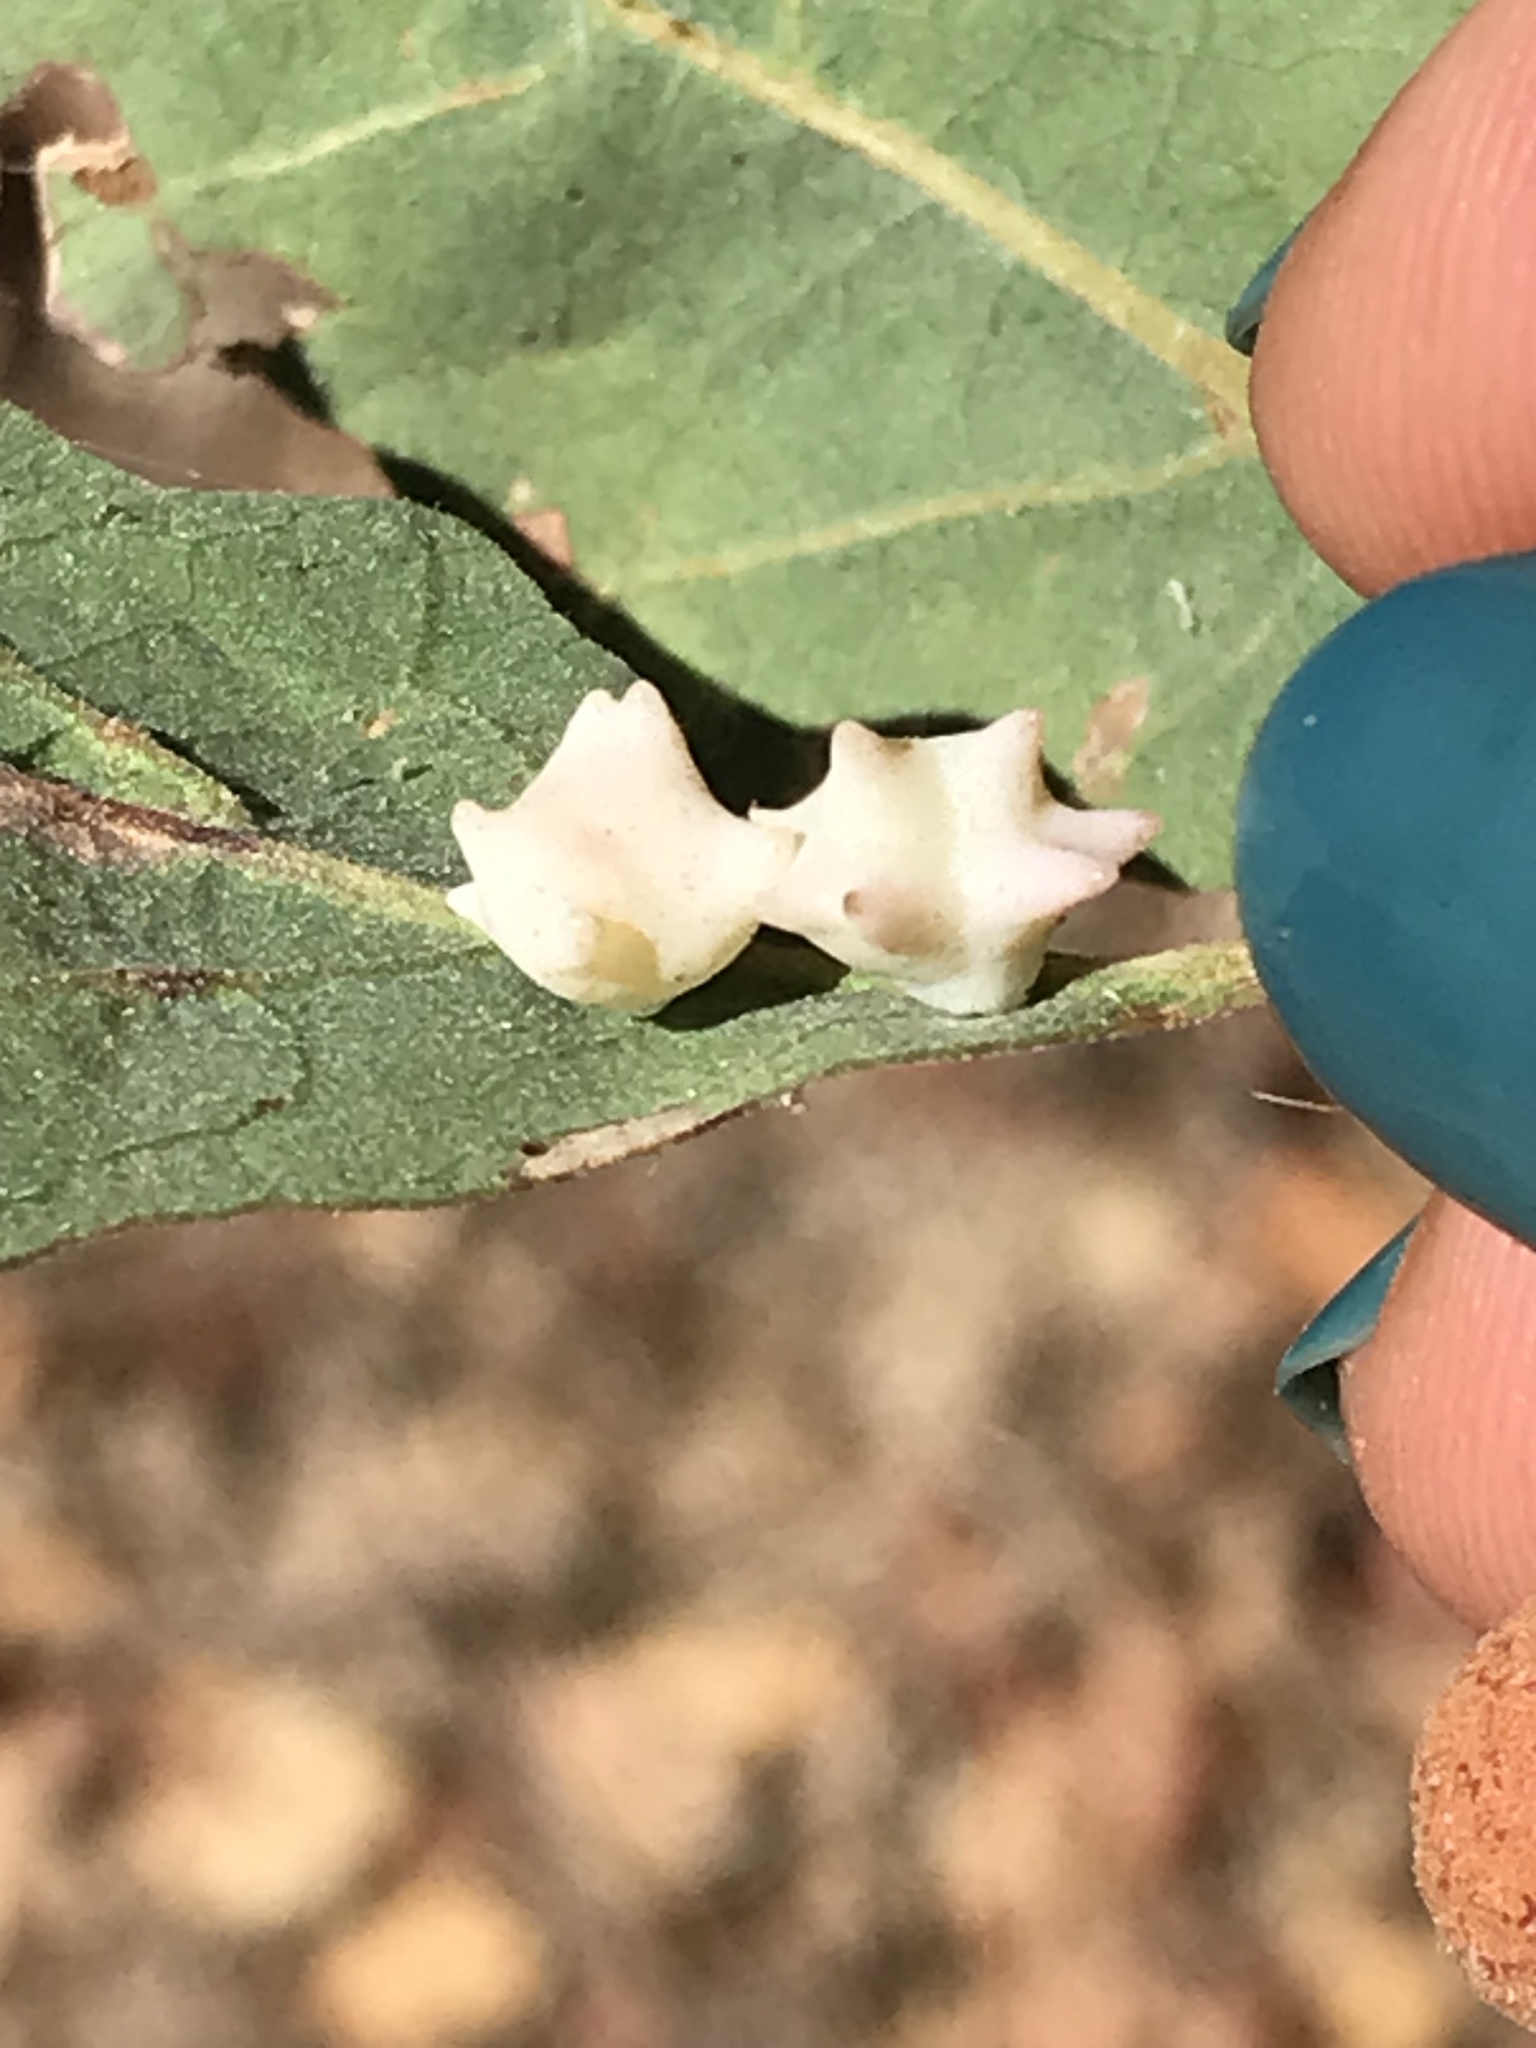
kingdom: Animalia
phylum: Arthropoda
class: Insecta
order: Hymenoptera
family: Cynipidae
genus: Cynips
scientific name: Cynips douglasi
